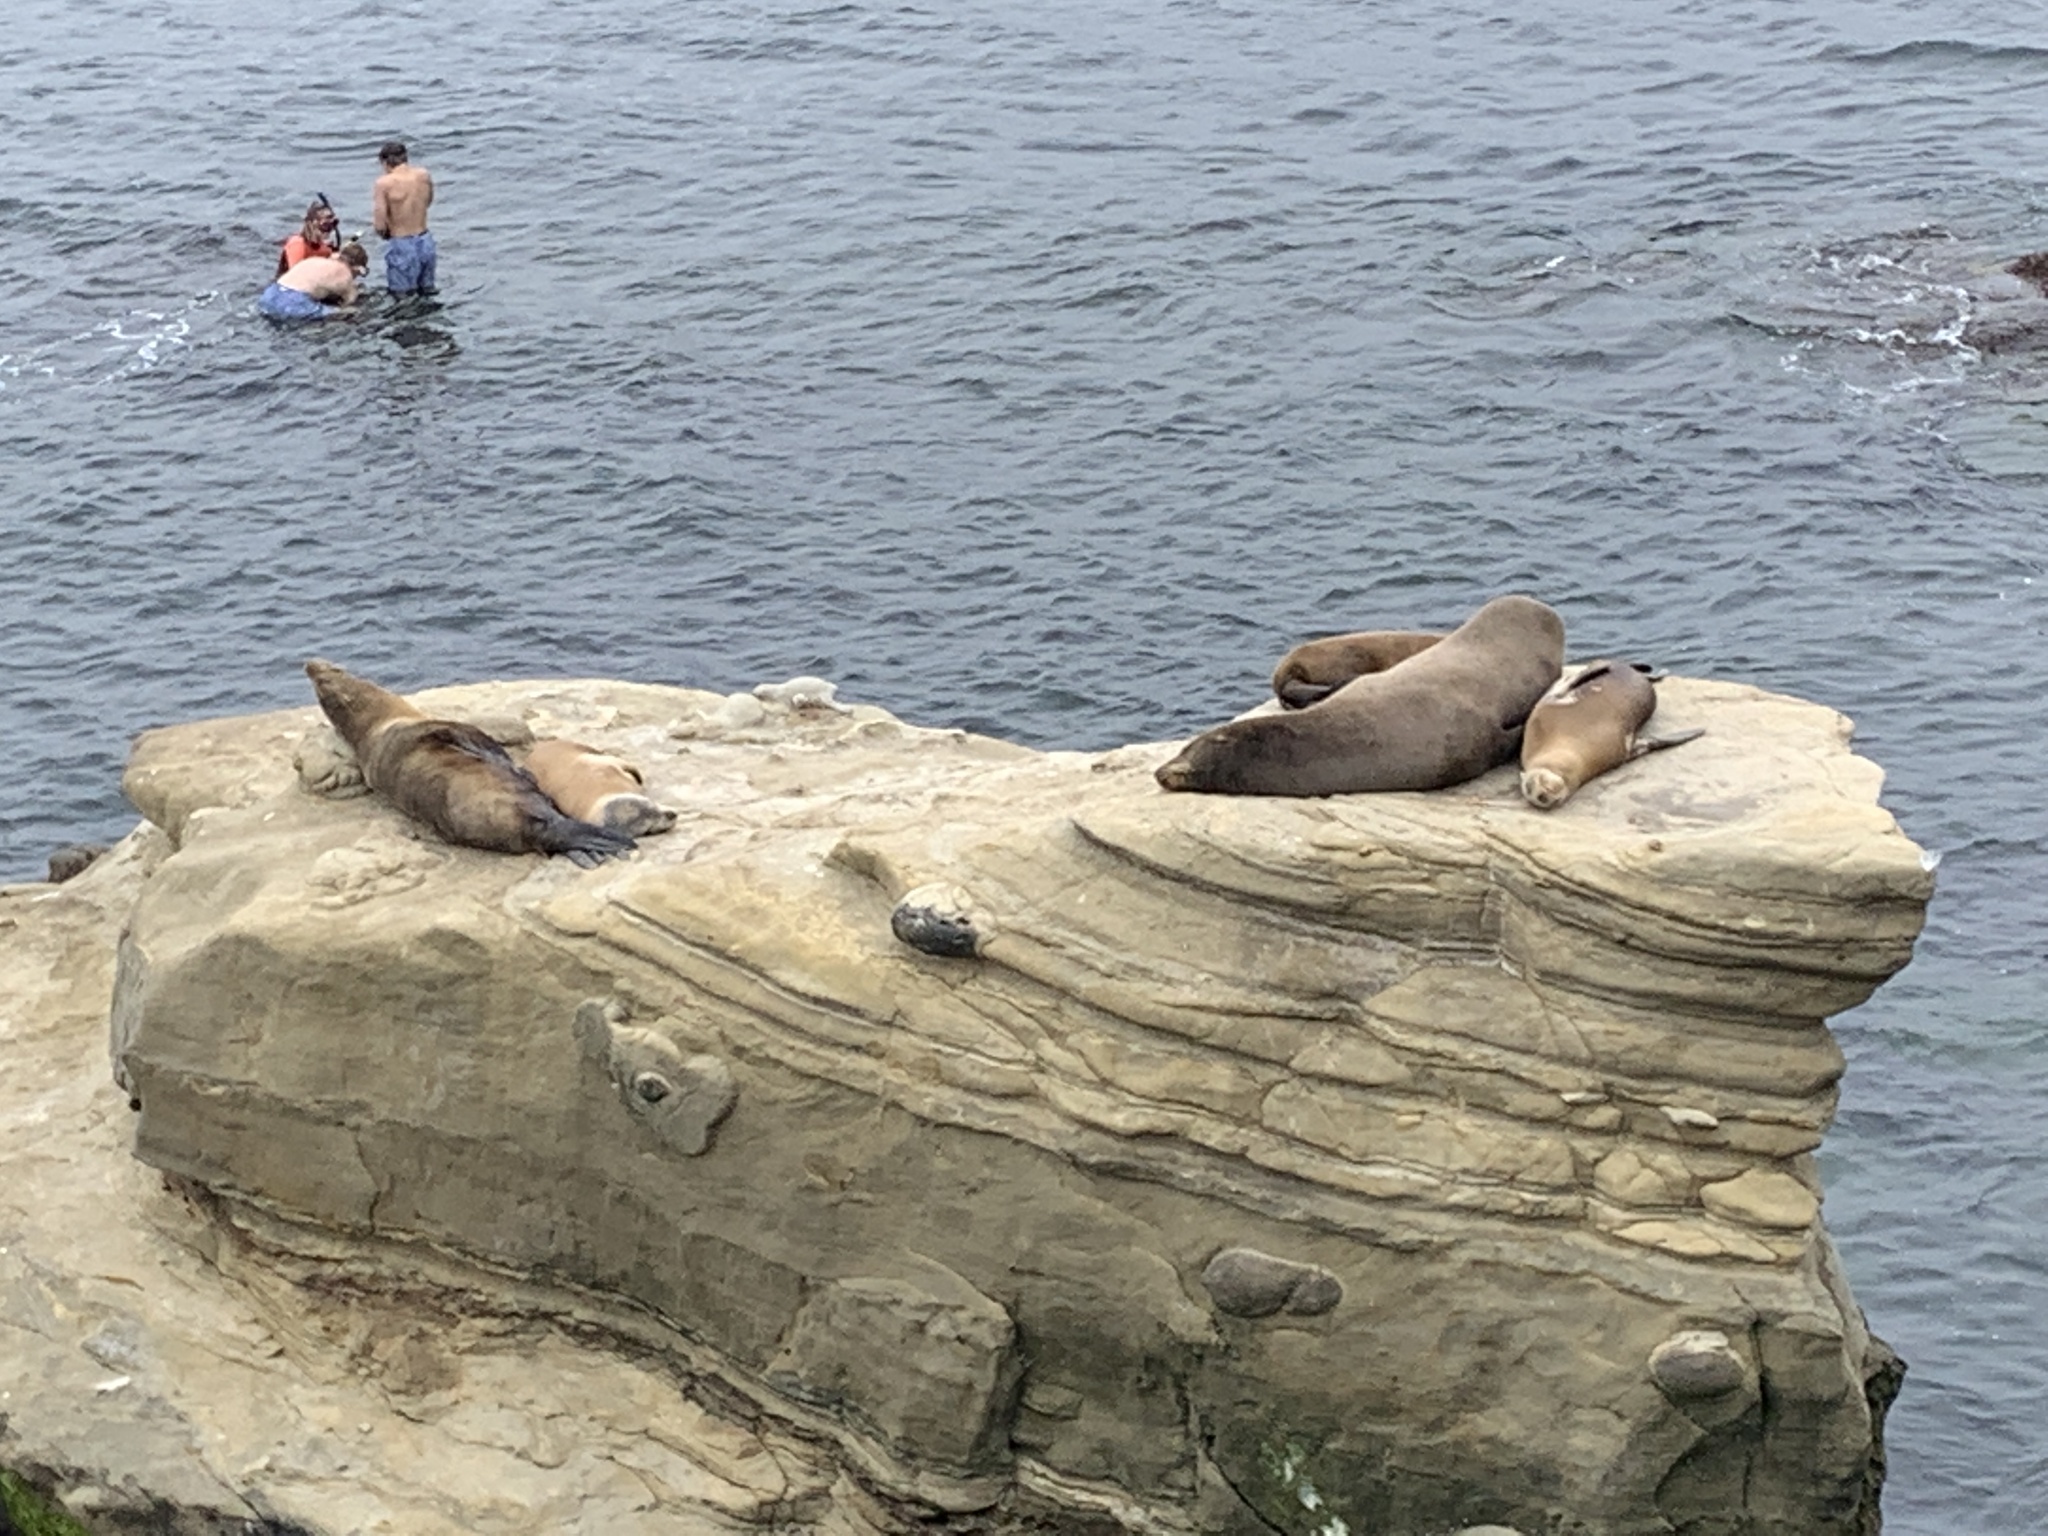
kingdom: Animalia
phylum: Chordata
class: Mammalia
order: Carnivora
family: Otariidae
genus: Zalophus
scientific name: Zalophus californianus
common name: California sea lion
